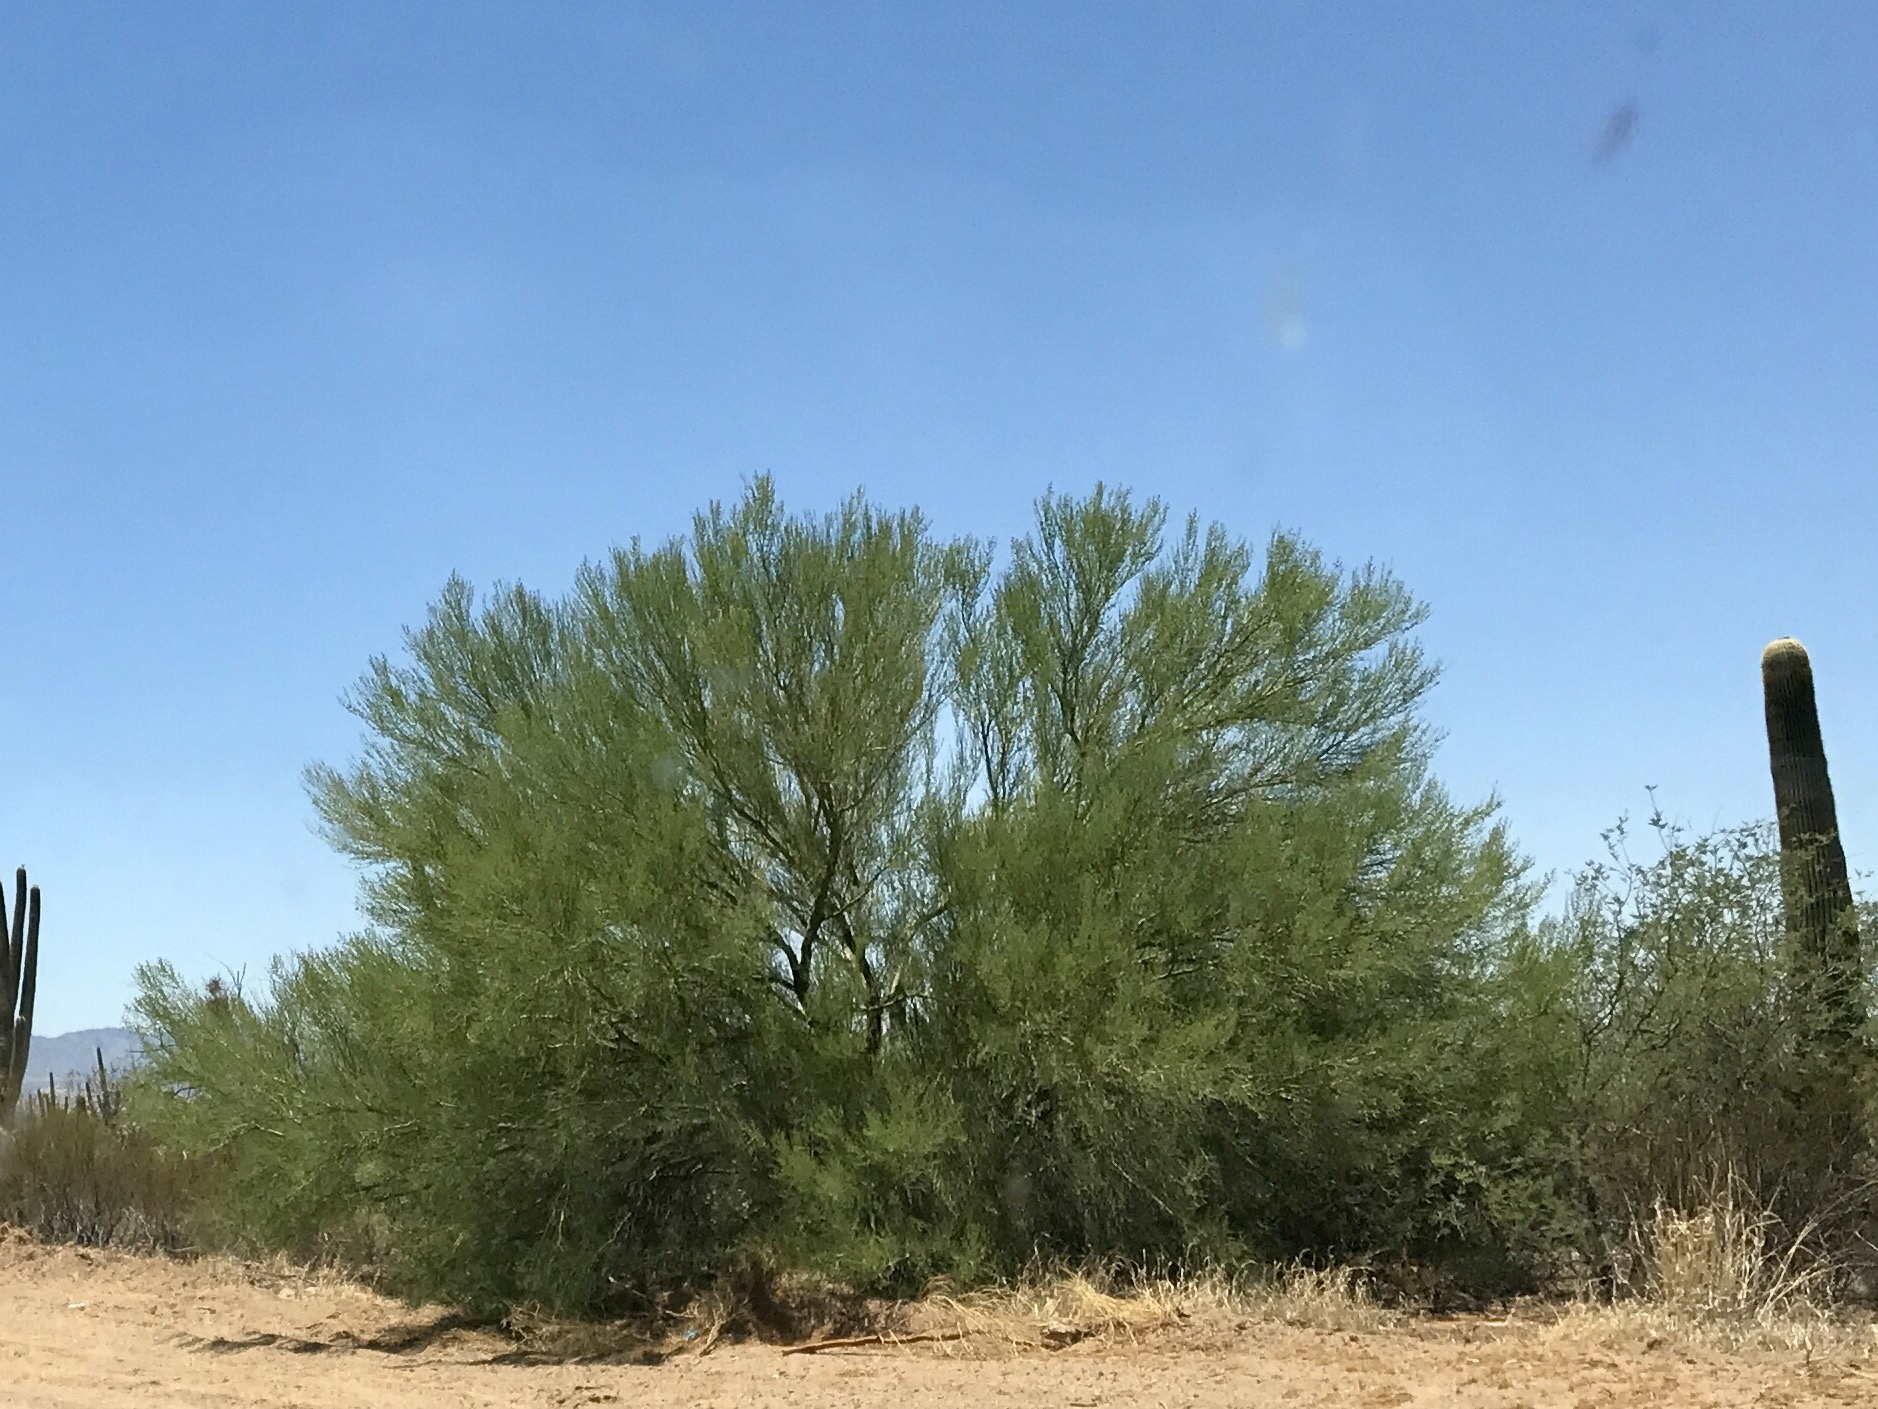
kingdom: Plantae
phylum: Tracheophyta
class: Magnoliopsida
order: Fabales
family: Fabaceae
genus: Parkinsonia
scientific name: Parkinsonia microphylla
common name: Yellow paloverde
